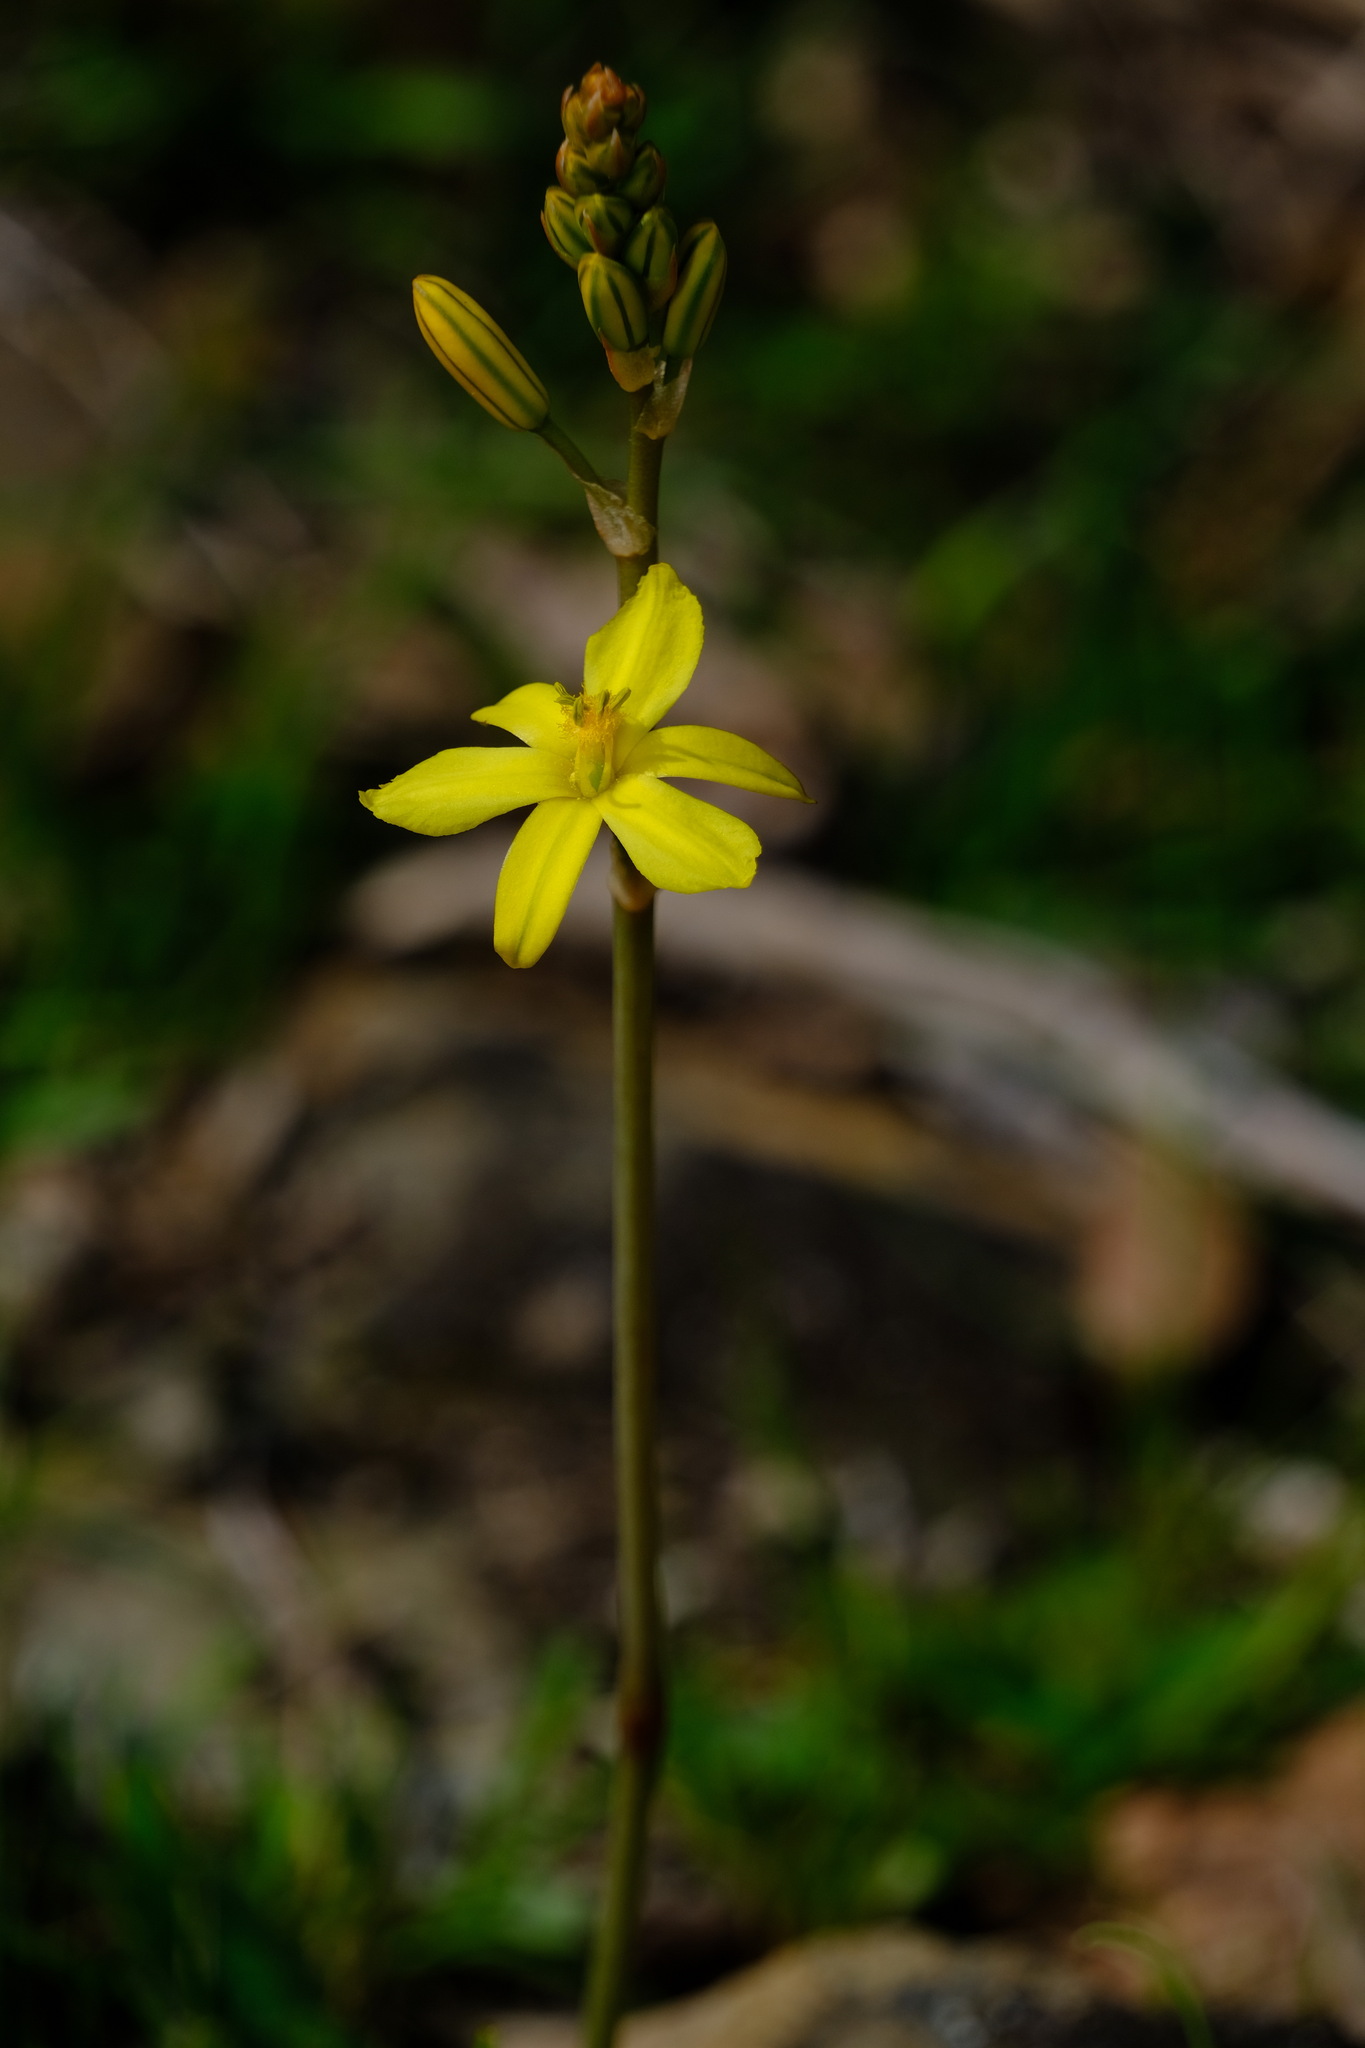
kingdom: Plantae
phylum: Tracheophyta
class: Liliopsida
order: Asparagales
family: Asphodelaceae
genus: Bulbine
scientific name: Bulbine bulbosa
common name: Golden-lily
